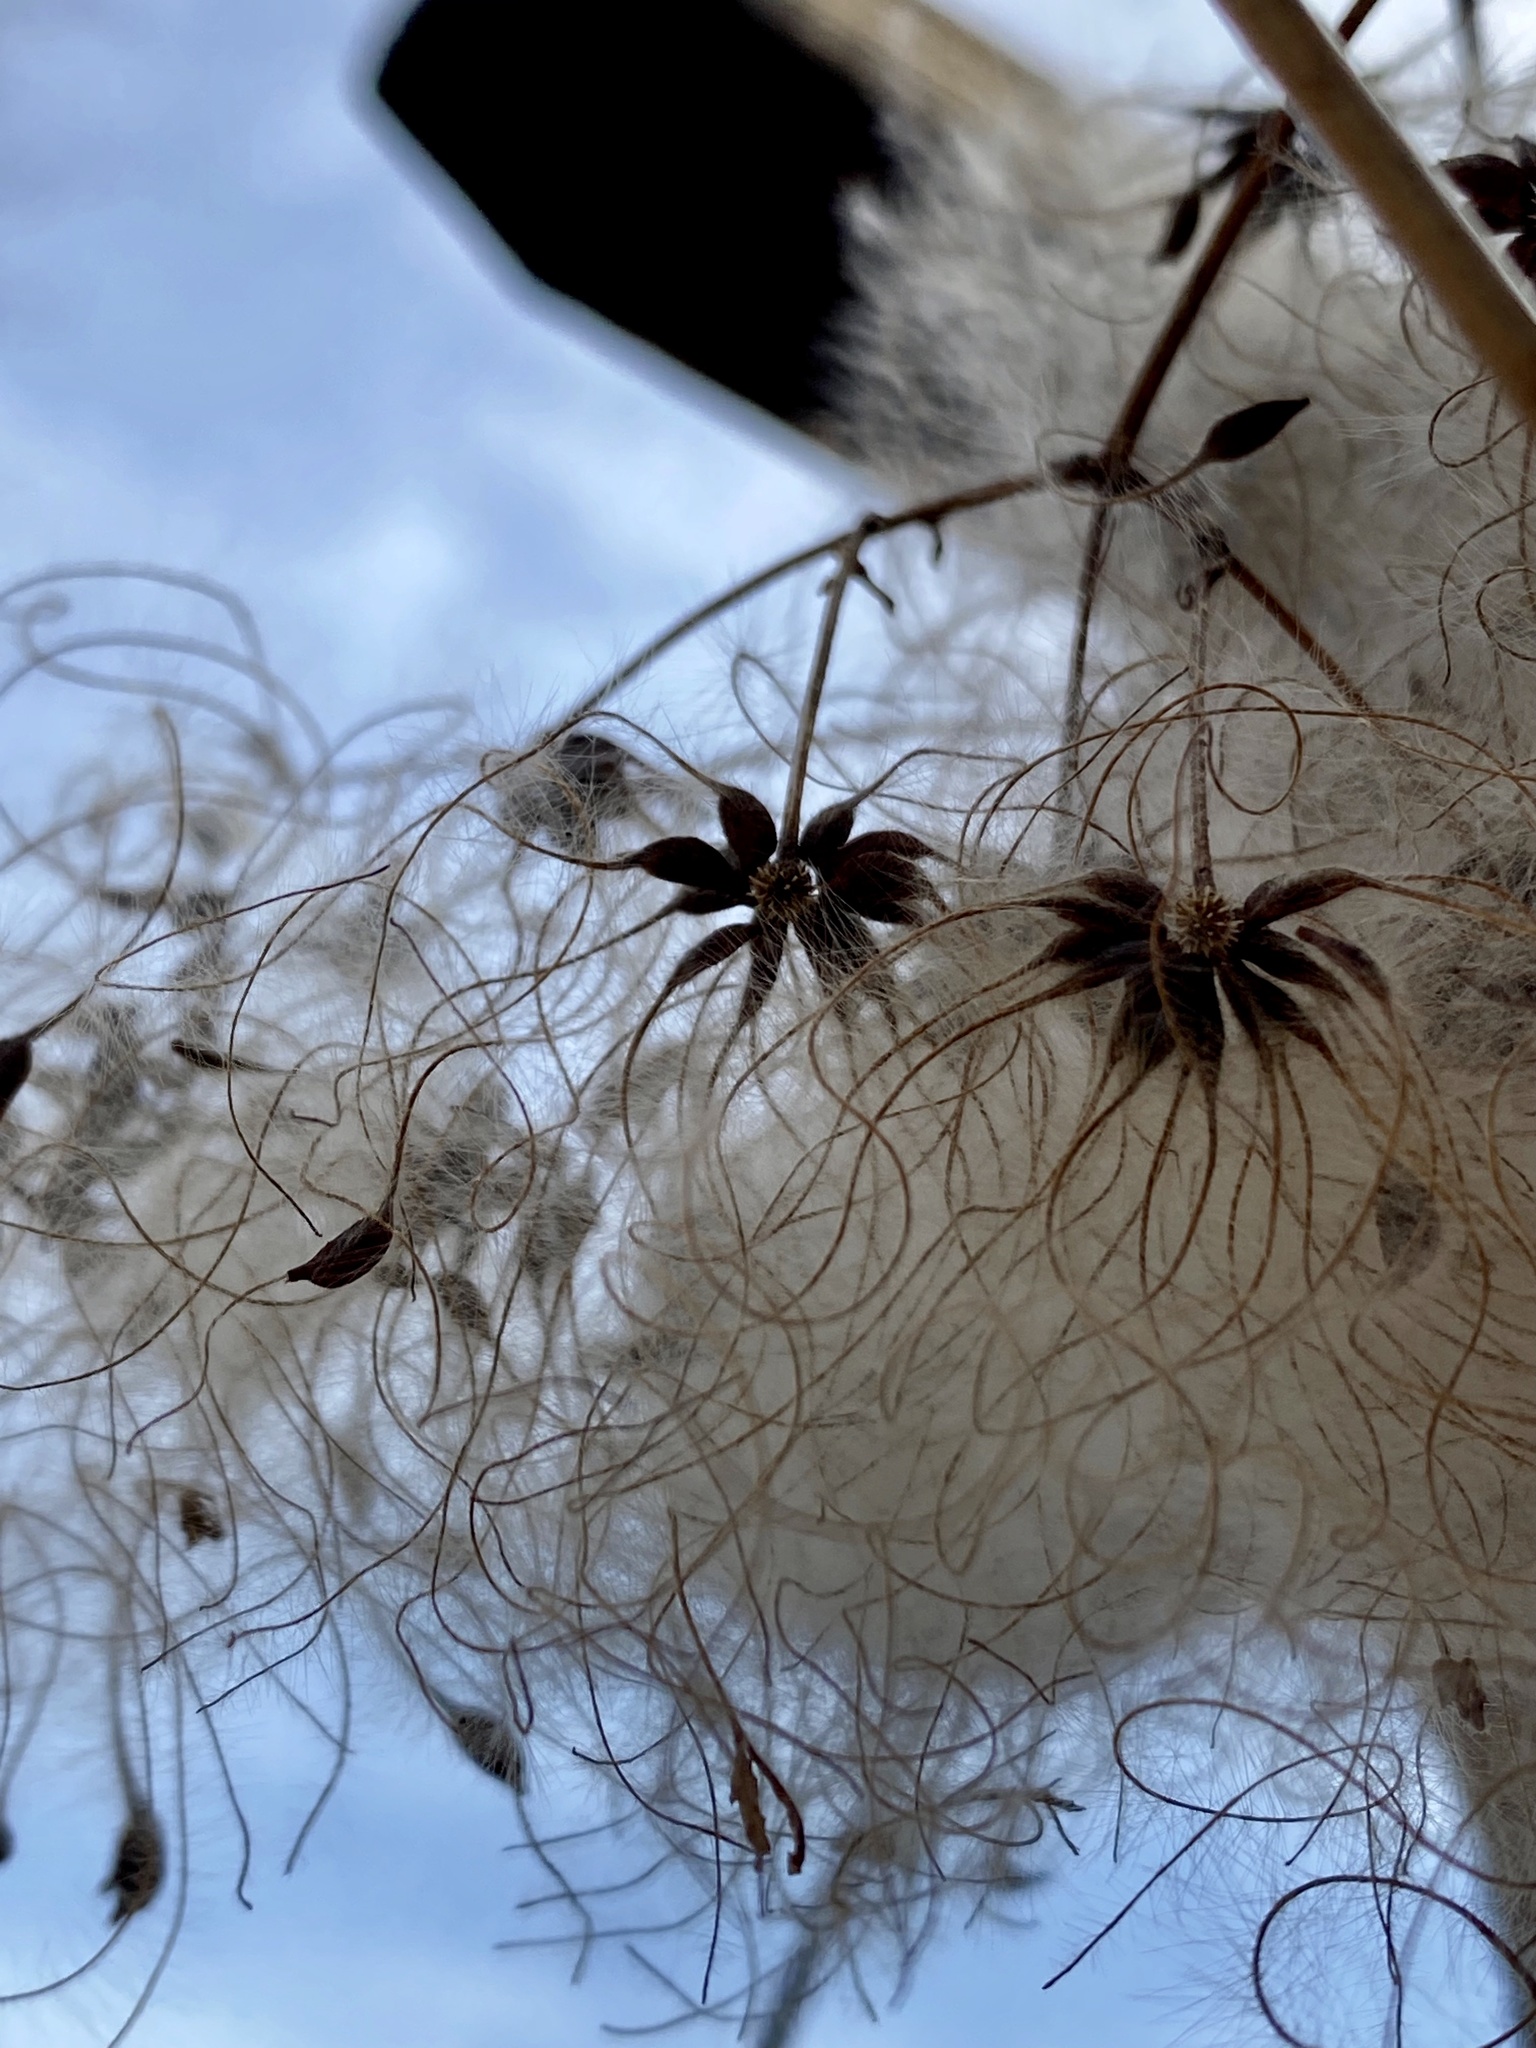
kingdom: Plantae
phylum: Tracheophyta
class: Magnoliopsida
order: Ranunculales
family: Ranunculaceae
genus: Clematis
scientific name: Clematis virginiana
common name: Virgin's-bower
